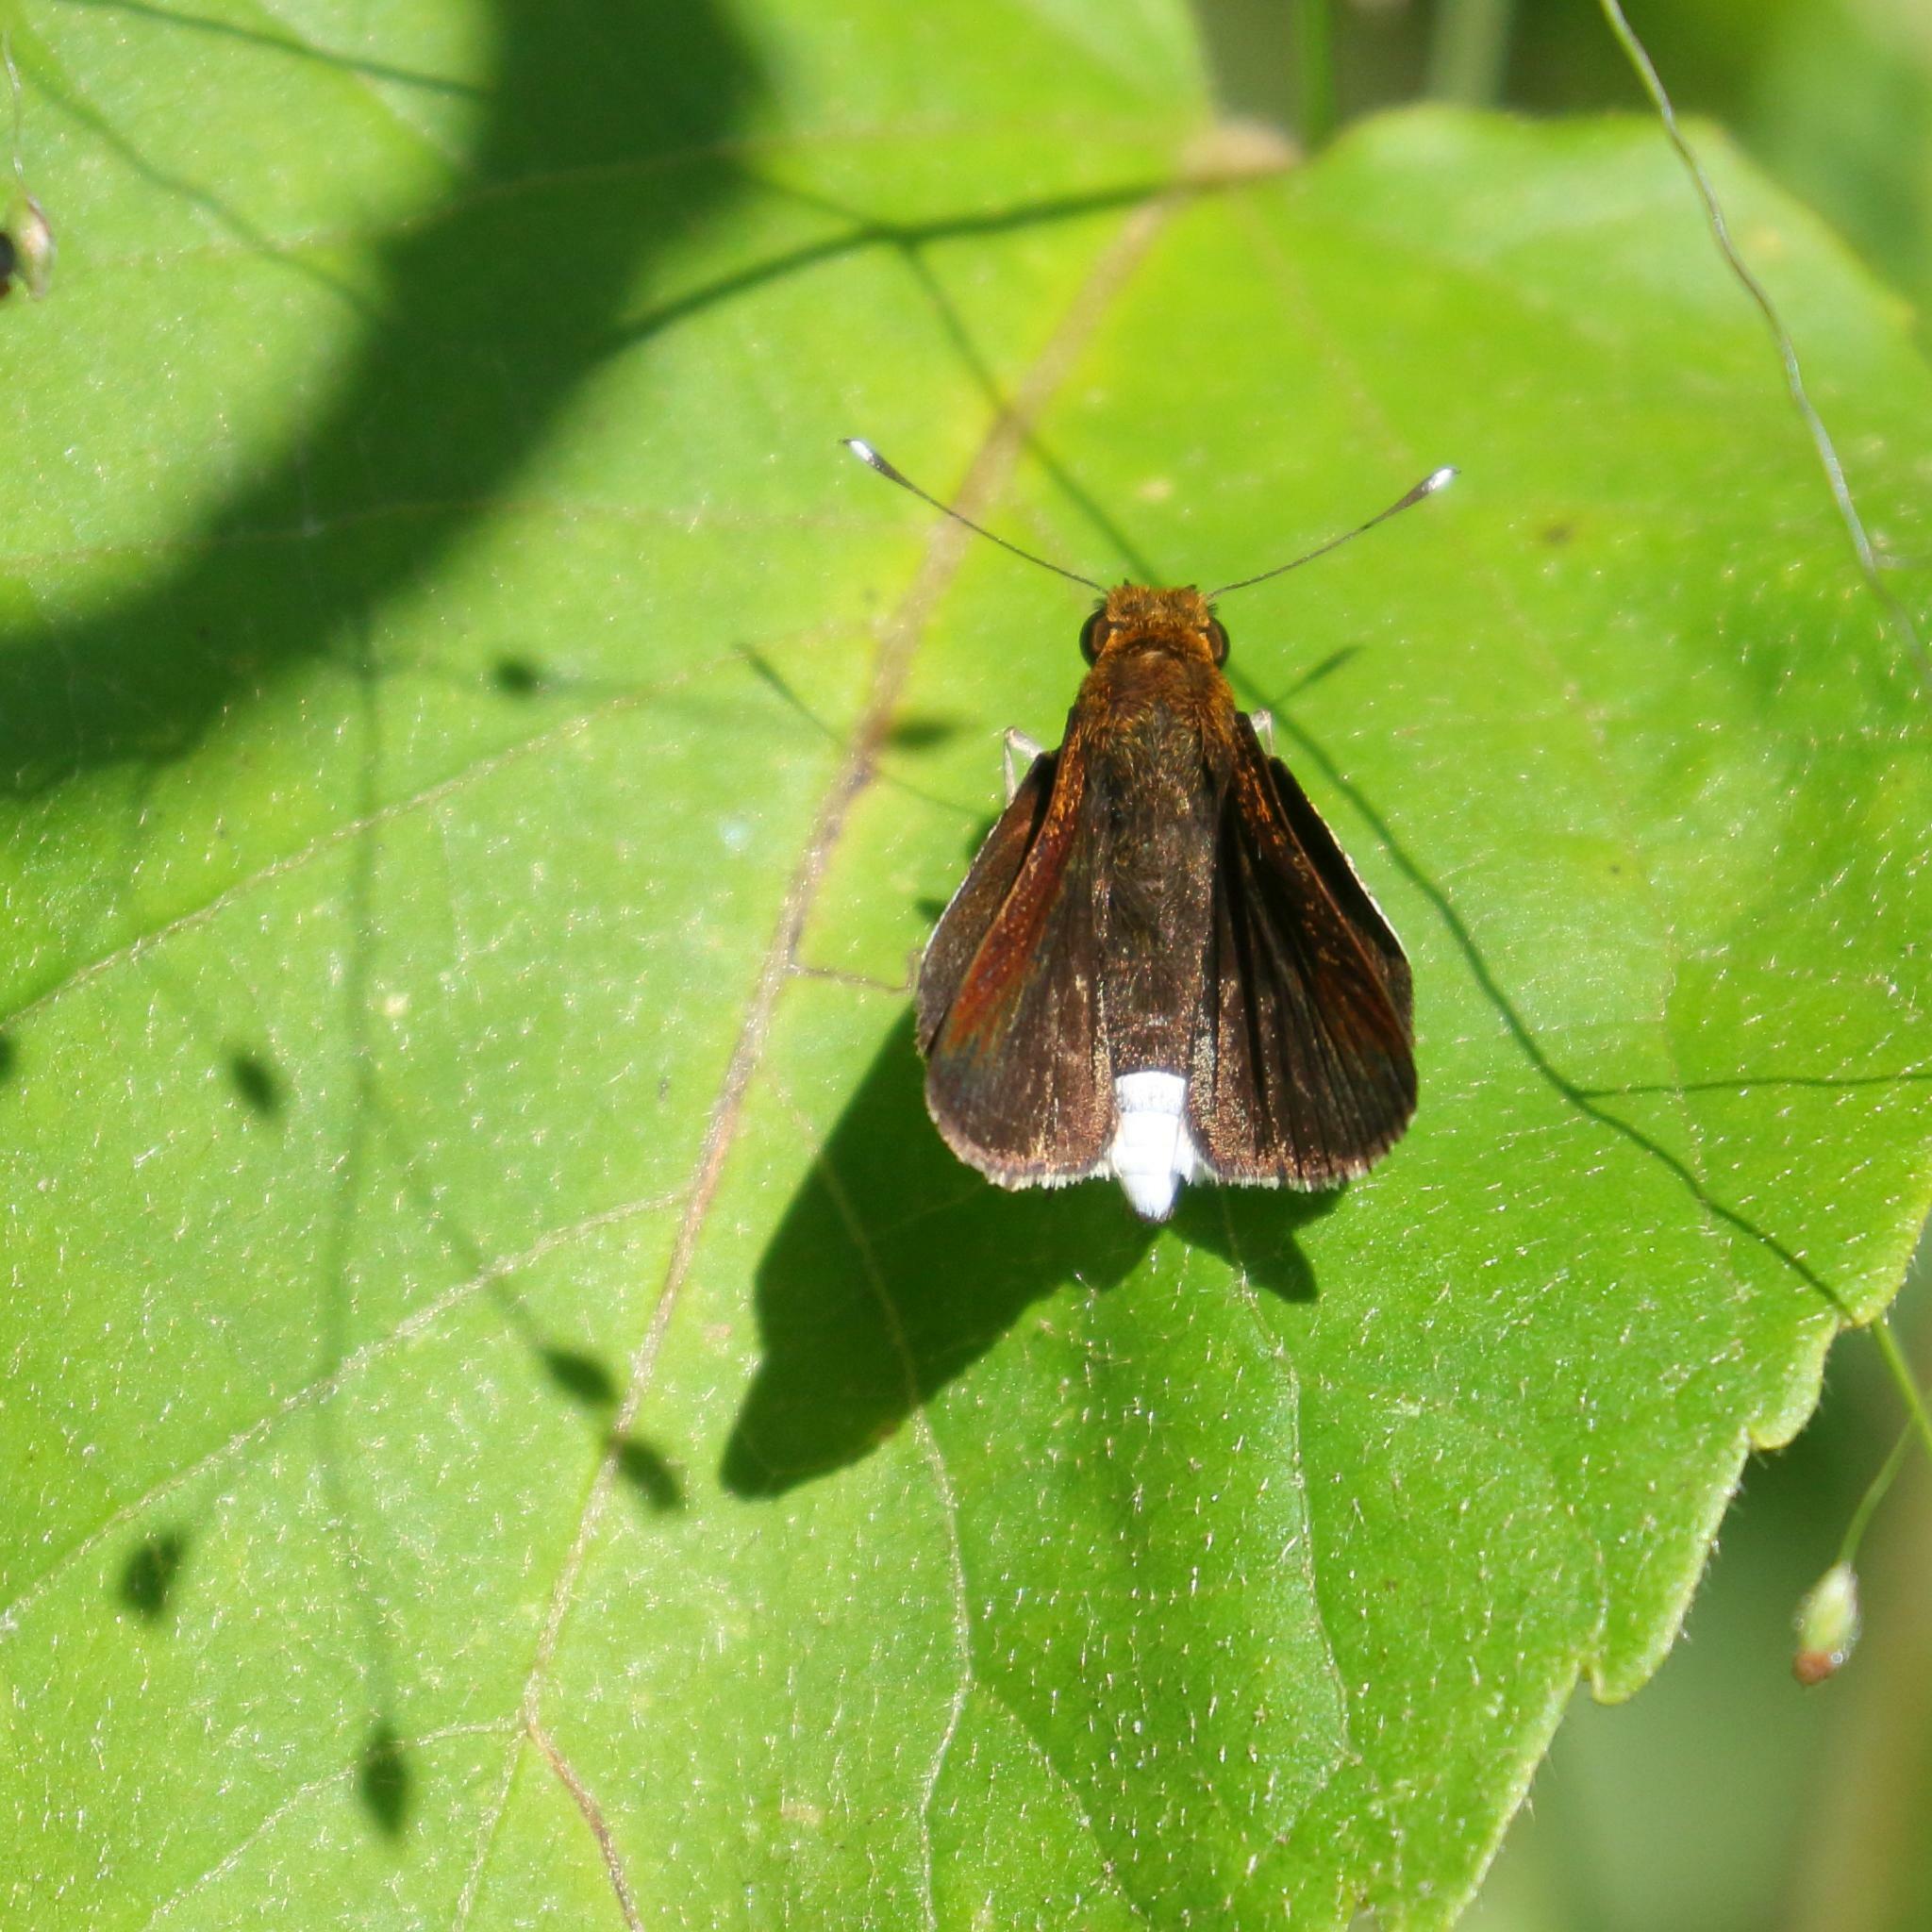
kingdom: Animalia
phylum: Arthropoda
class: Insecta
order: Lepidoptera
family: Hesperiidae
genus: Acleros
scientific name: Acleros mackenii
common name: Shade dart
